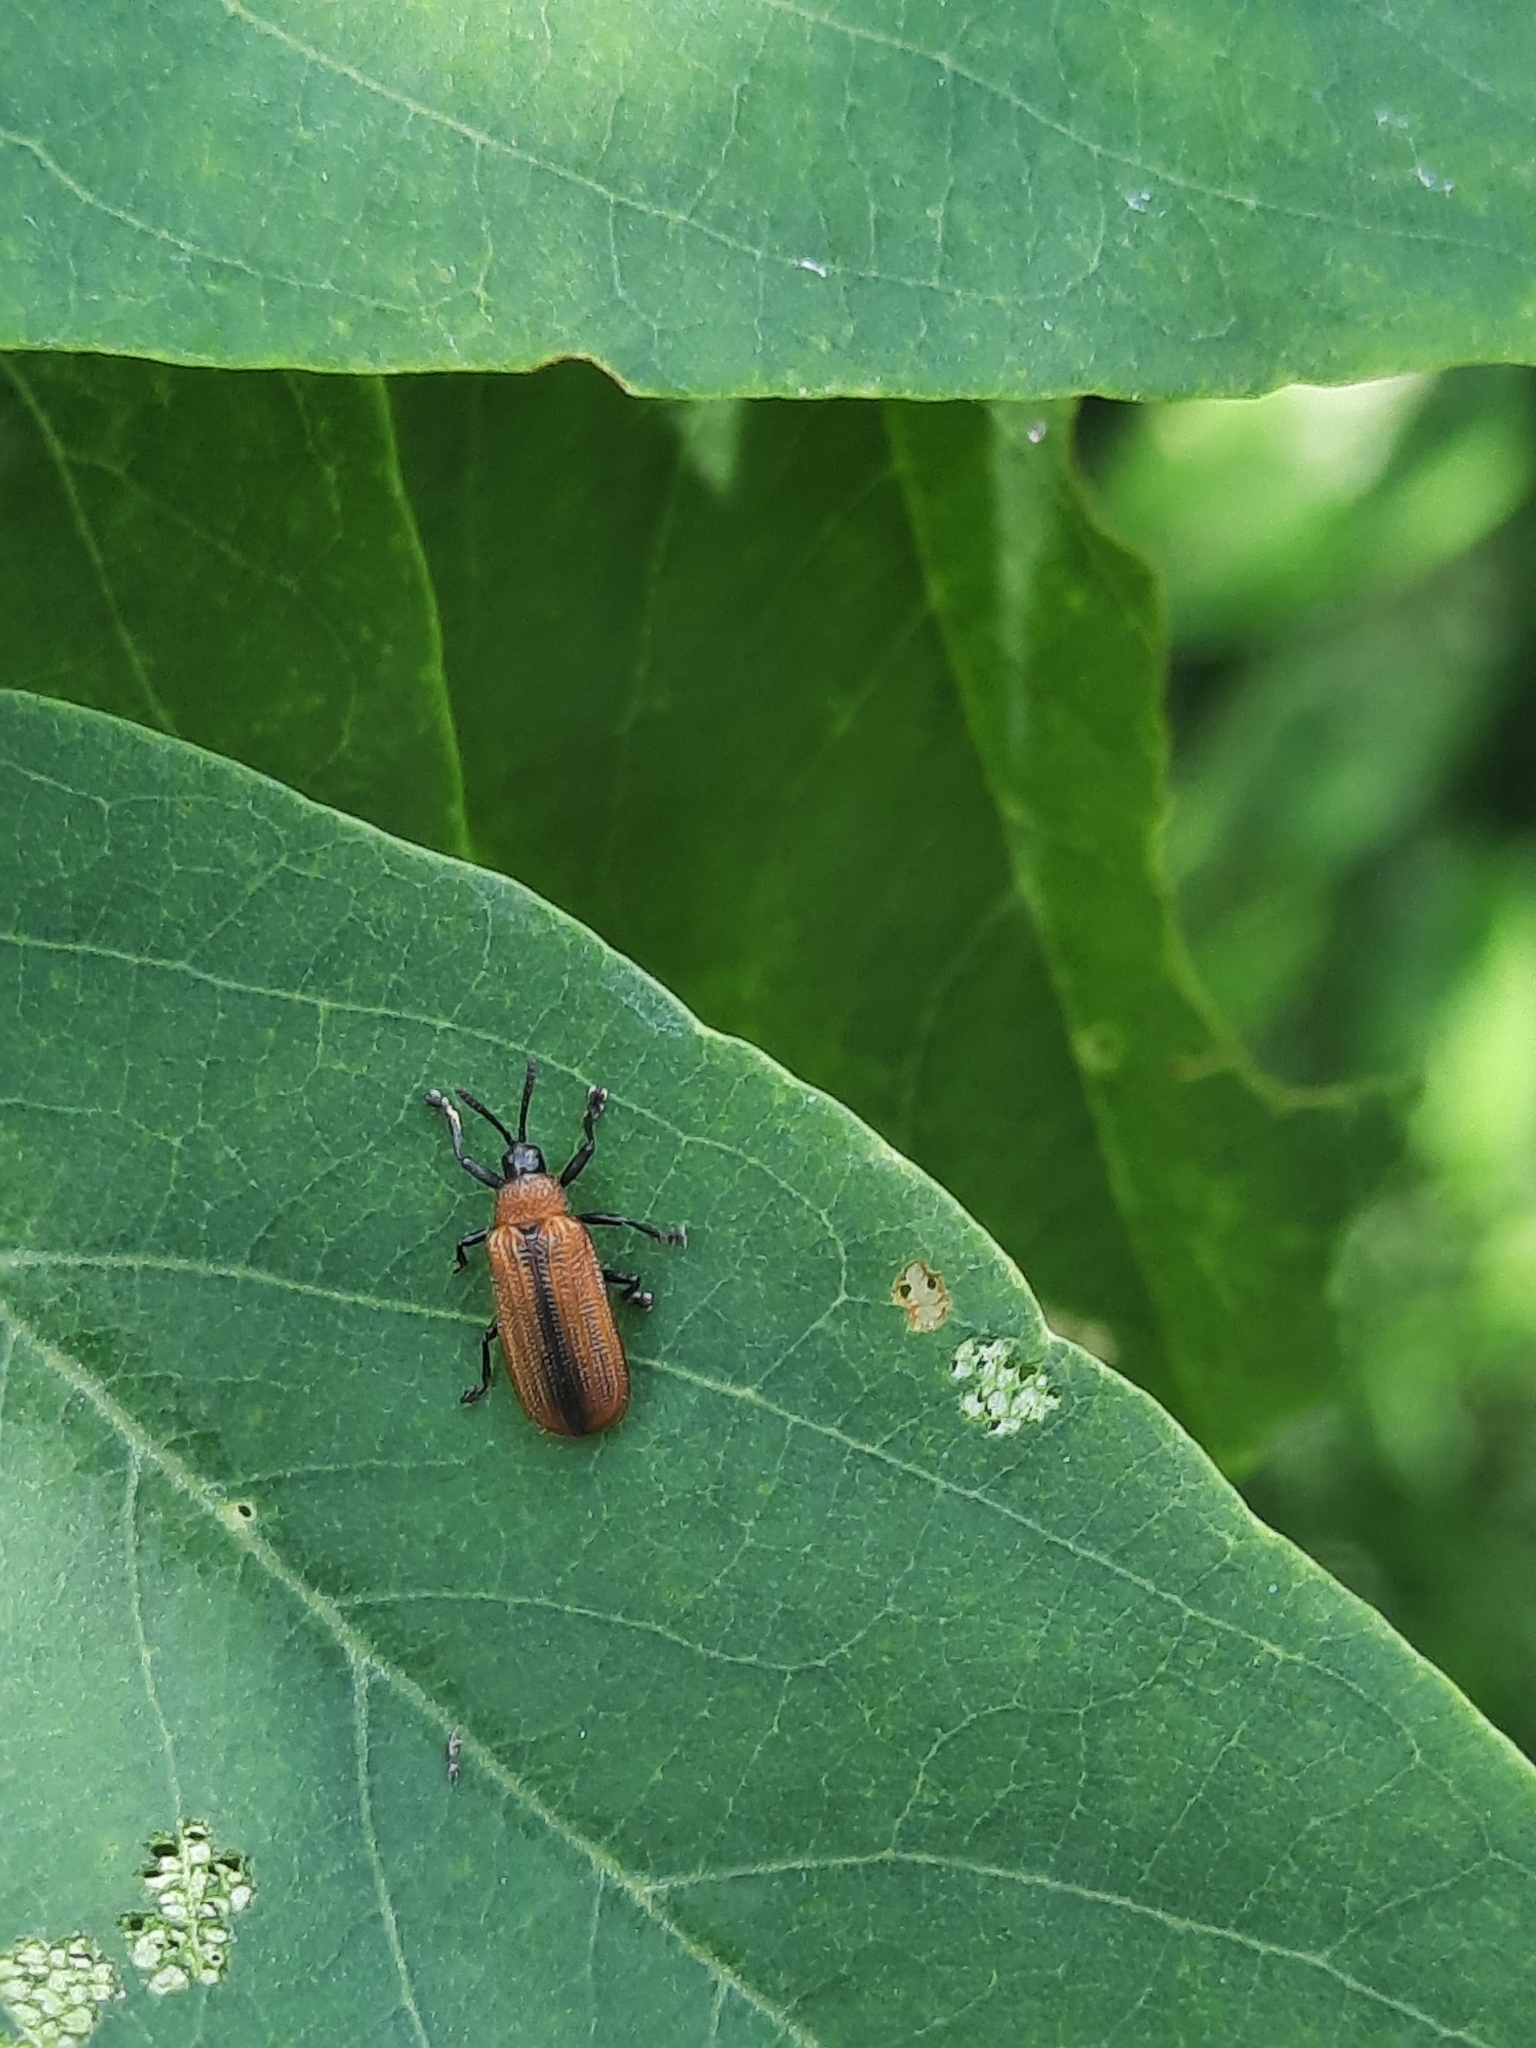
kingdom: Animalia
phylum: Arthropoda
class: Insecta
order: Coleoptera
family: Chrysomelidae
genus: Odontota
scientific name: Odontota dorsalis
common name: Locust leaf-miner beetle
